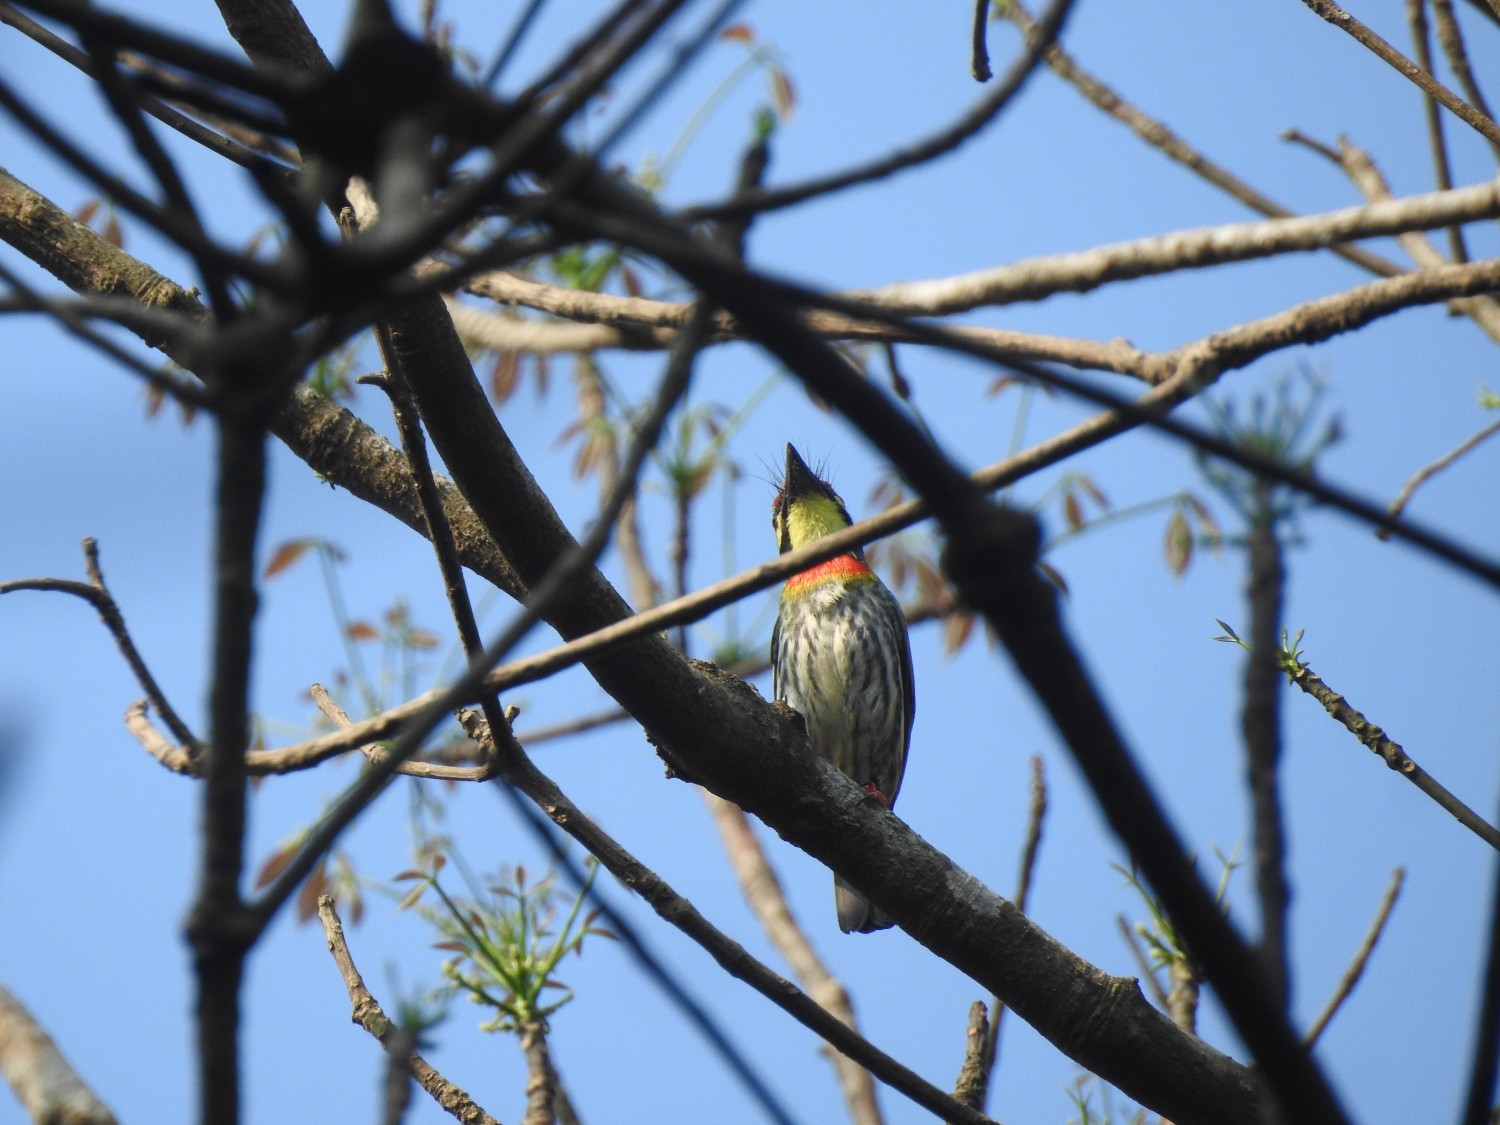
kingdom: Animalia
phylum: Chordata
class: Aves
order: Piciformes
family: Megalaimidae
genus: Psilopogon
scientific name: Psilopogon haemacephalus
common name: Coppersmith barbet
